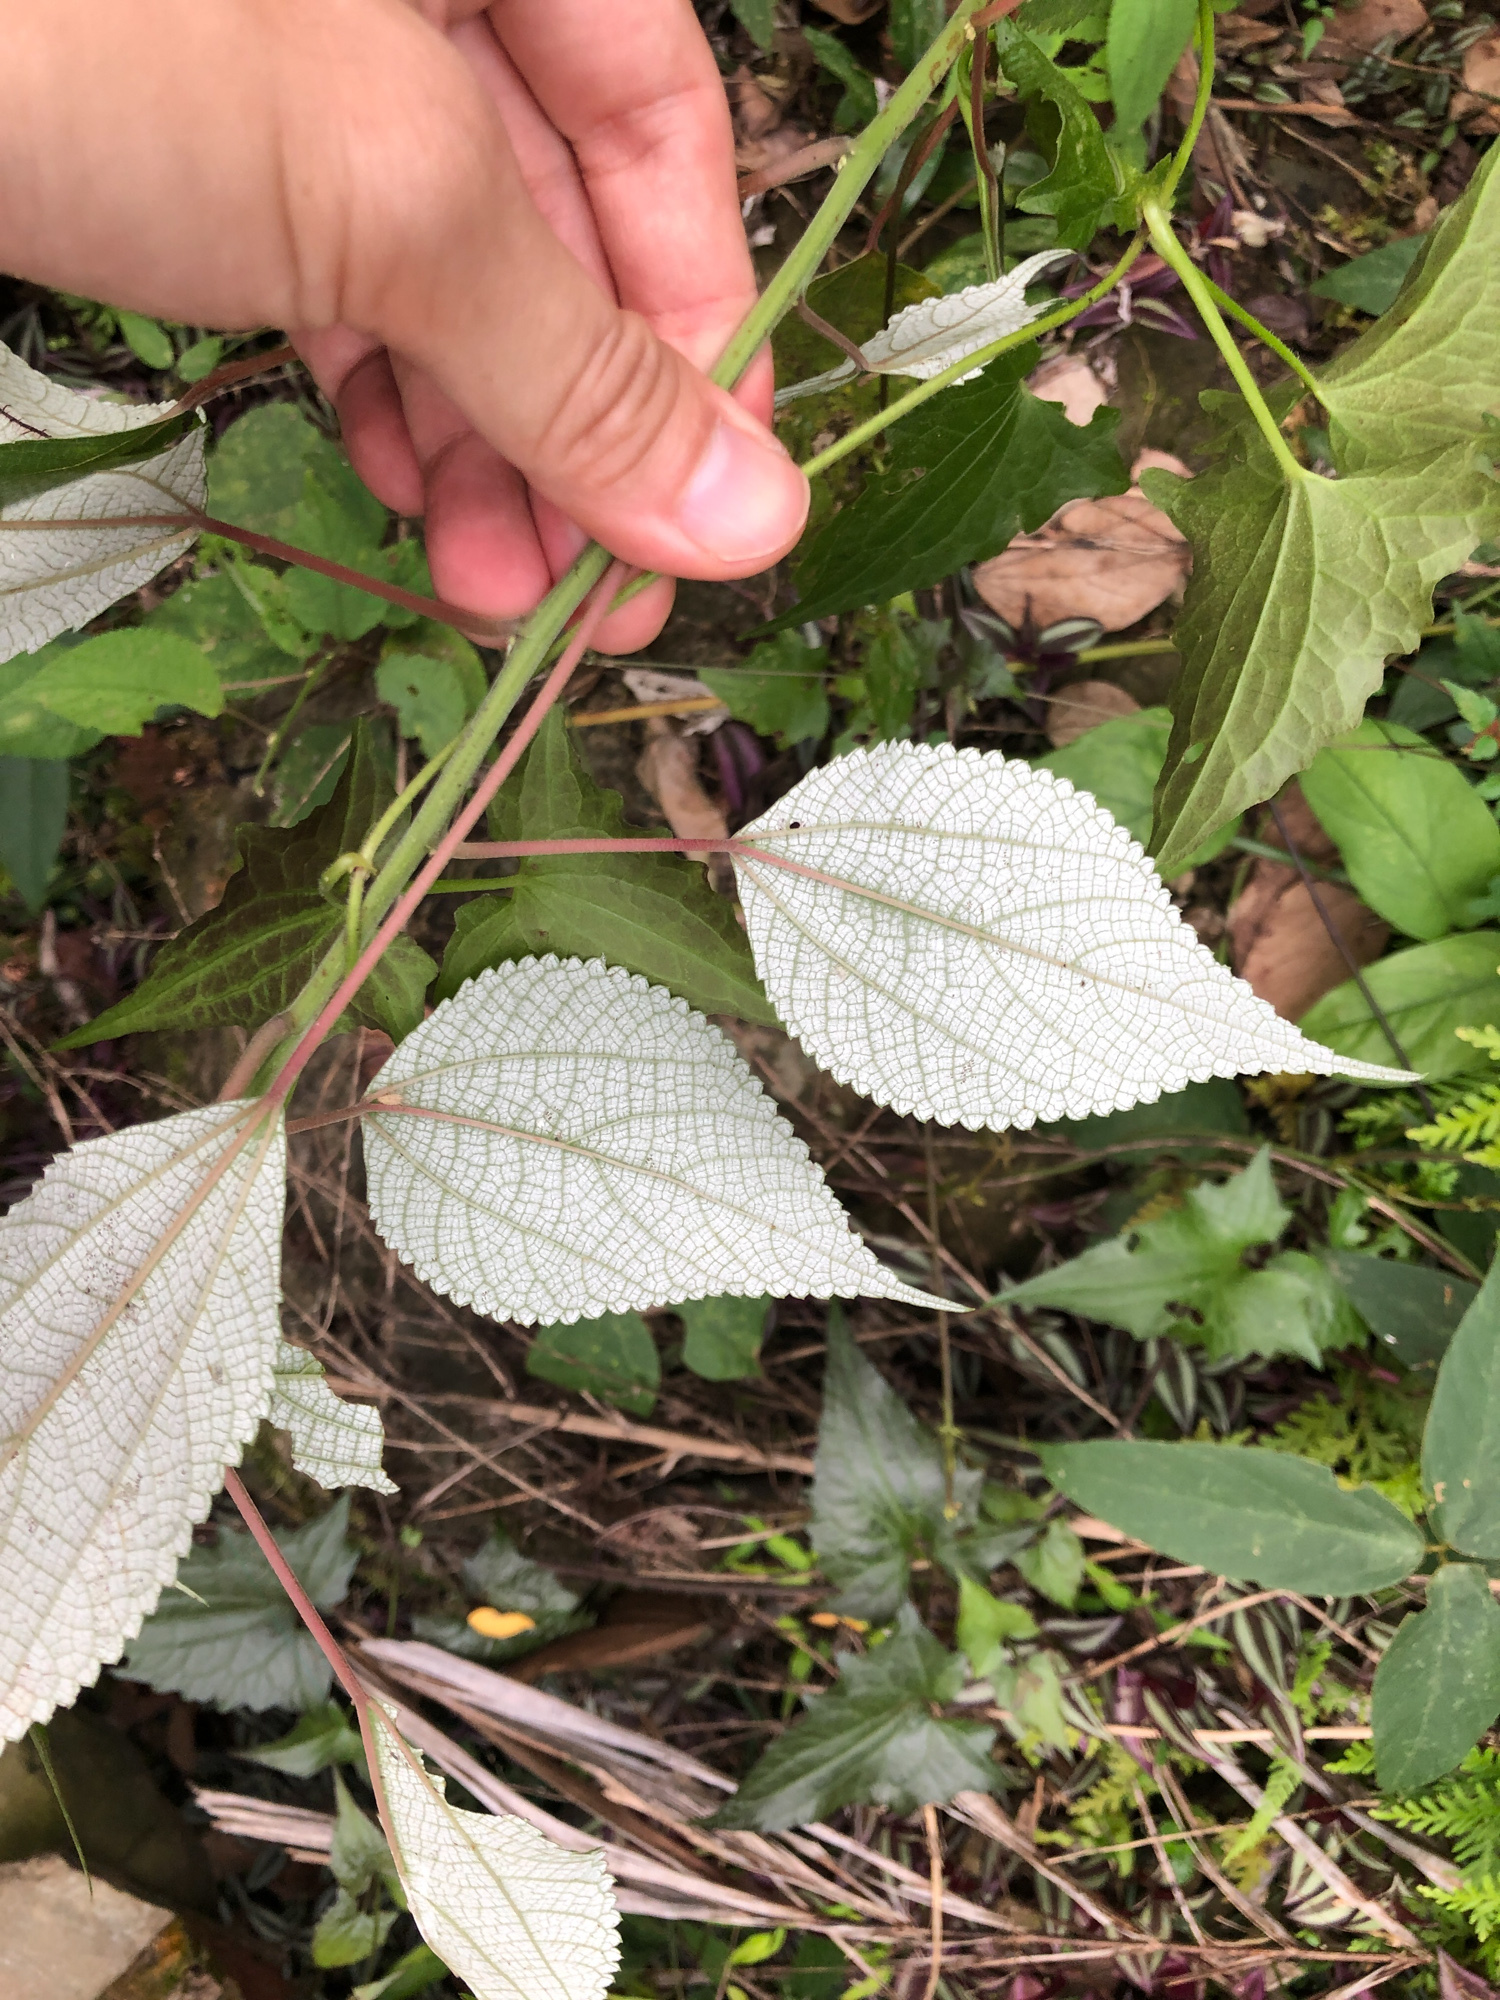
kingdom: Plantae
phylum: Tracheophyta
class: Magnoliopsida
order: Rosales
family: Urticaceae
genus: Boehmeria
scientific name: Boehmeria nivea
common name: Ramie chinese grass
